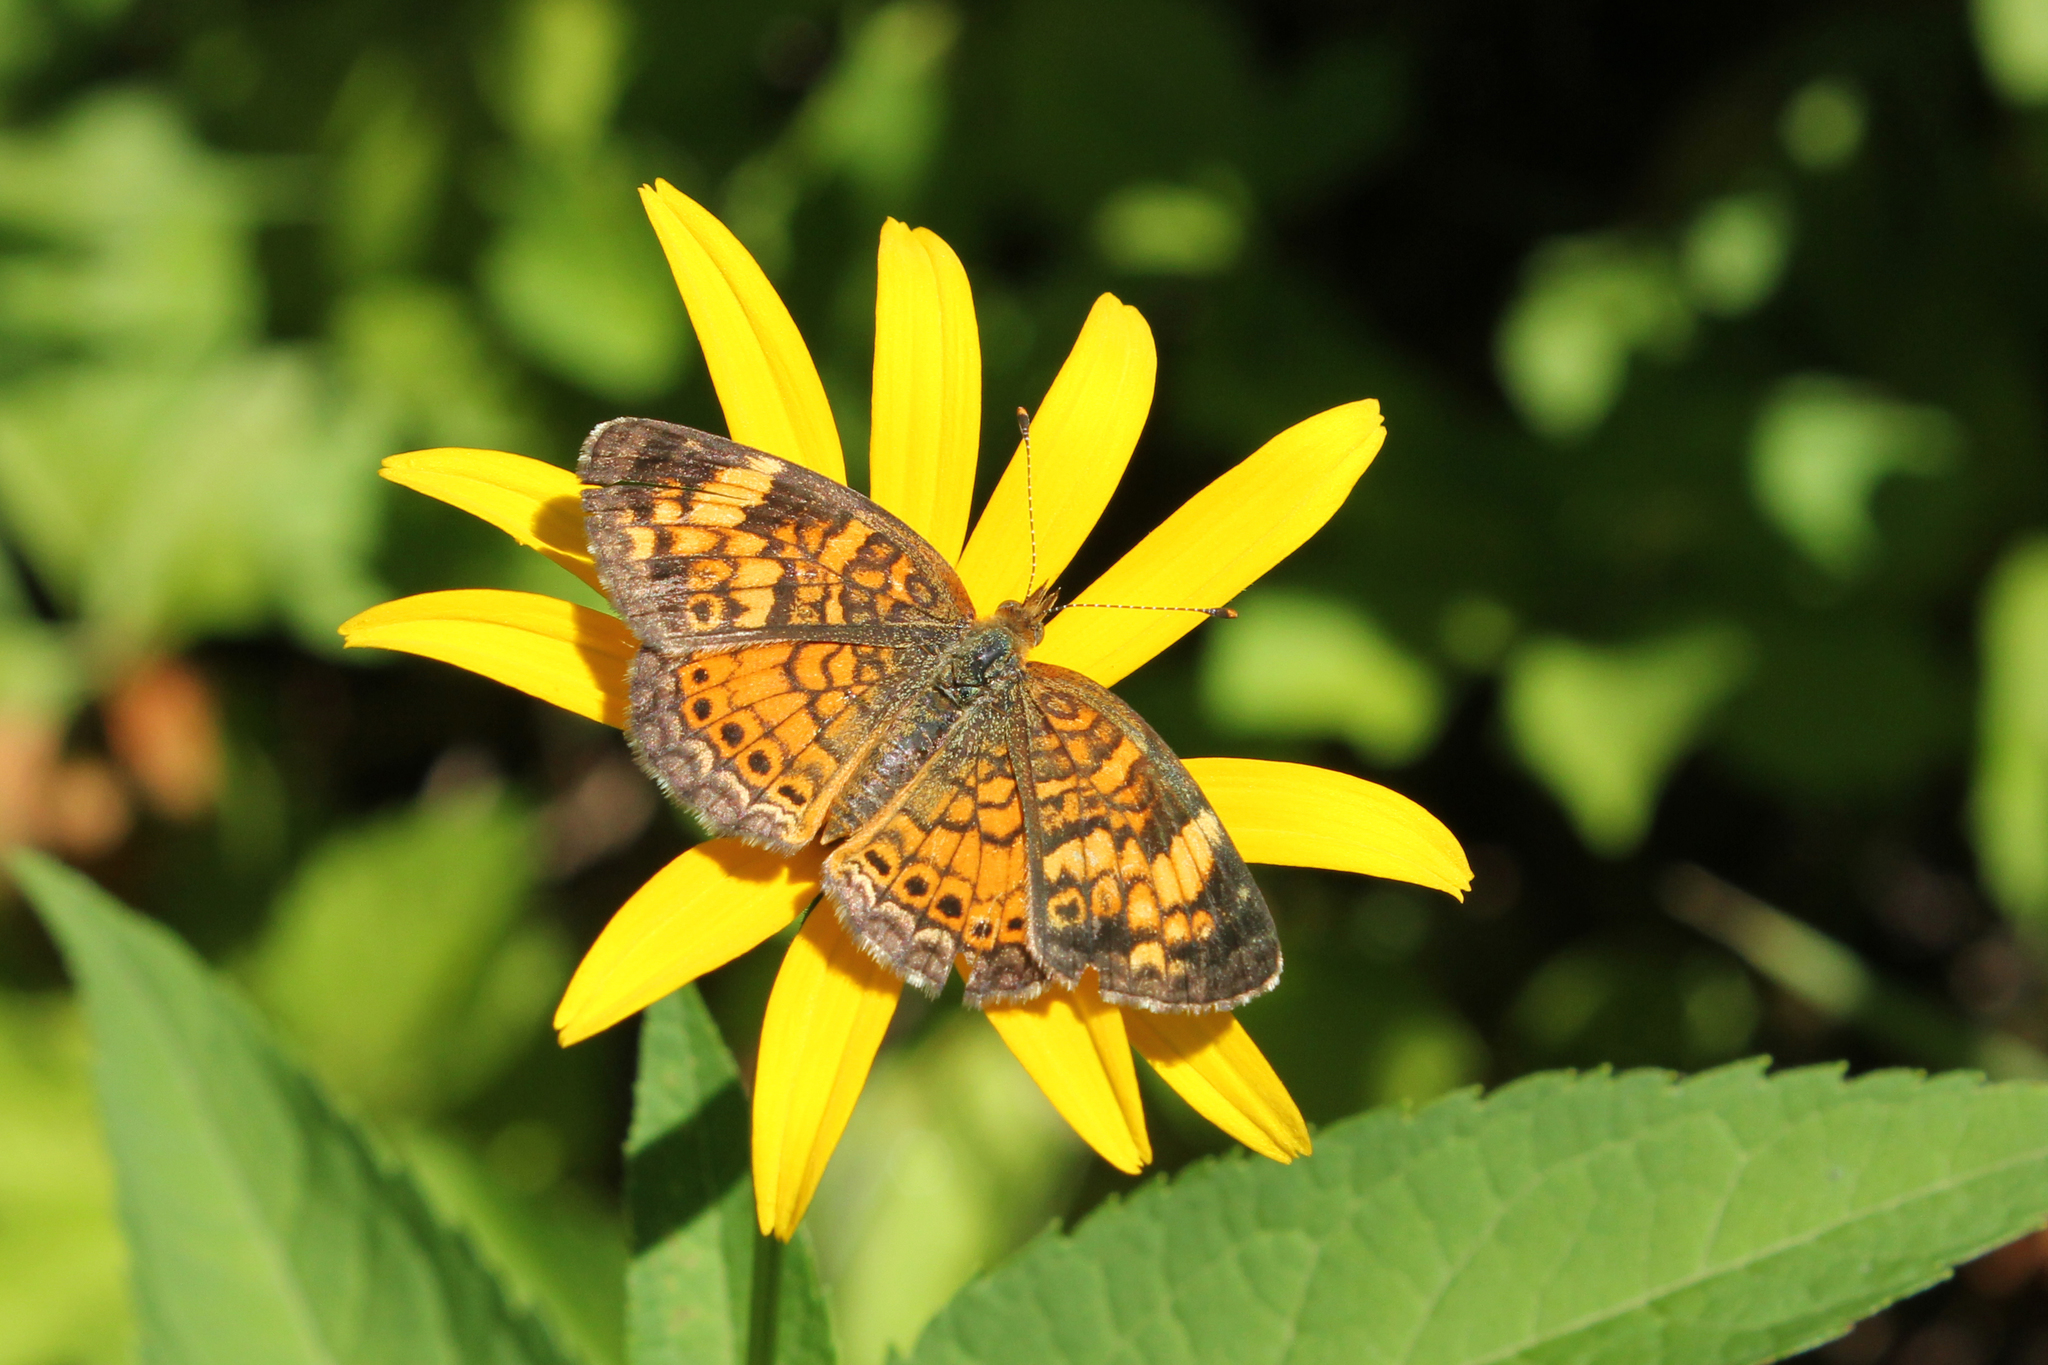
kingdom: Animalia
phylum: Arthropoda
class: Insecta
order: Lepidoptera
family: Nymphalidae
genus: Phyciodes
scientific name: Phyciodes tharos
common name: Pearl crescent
